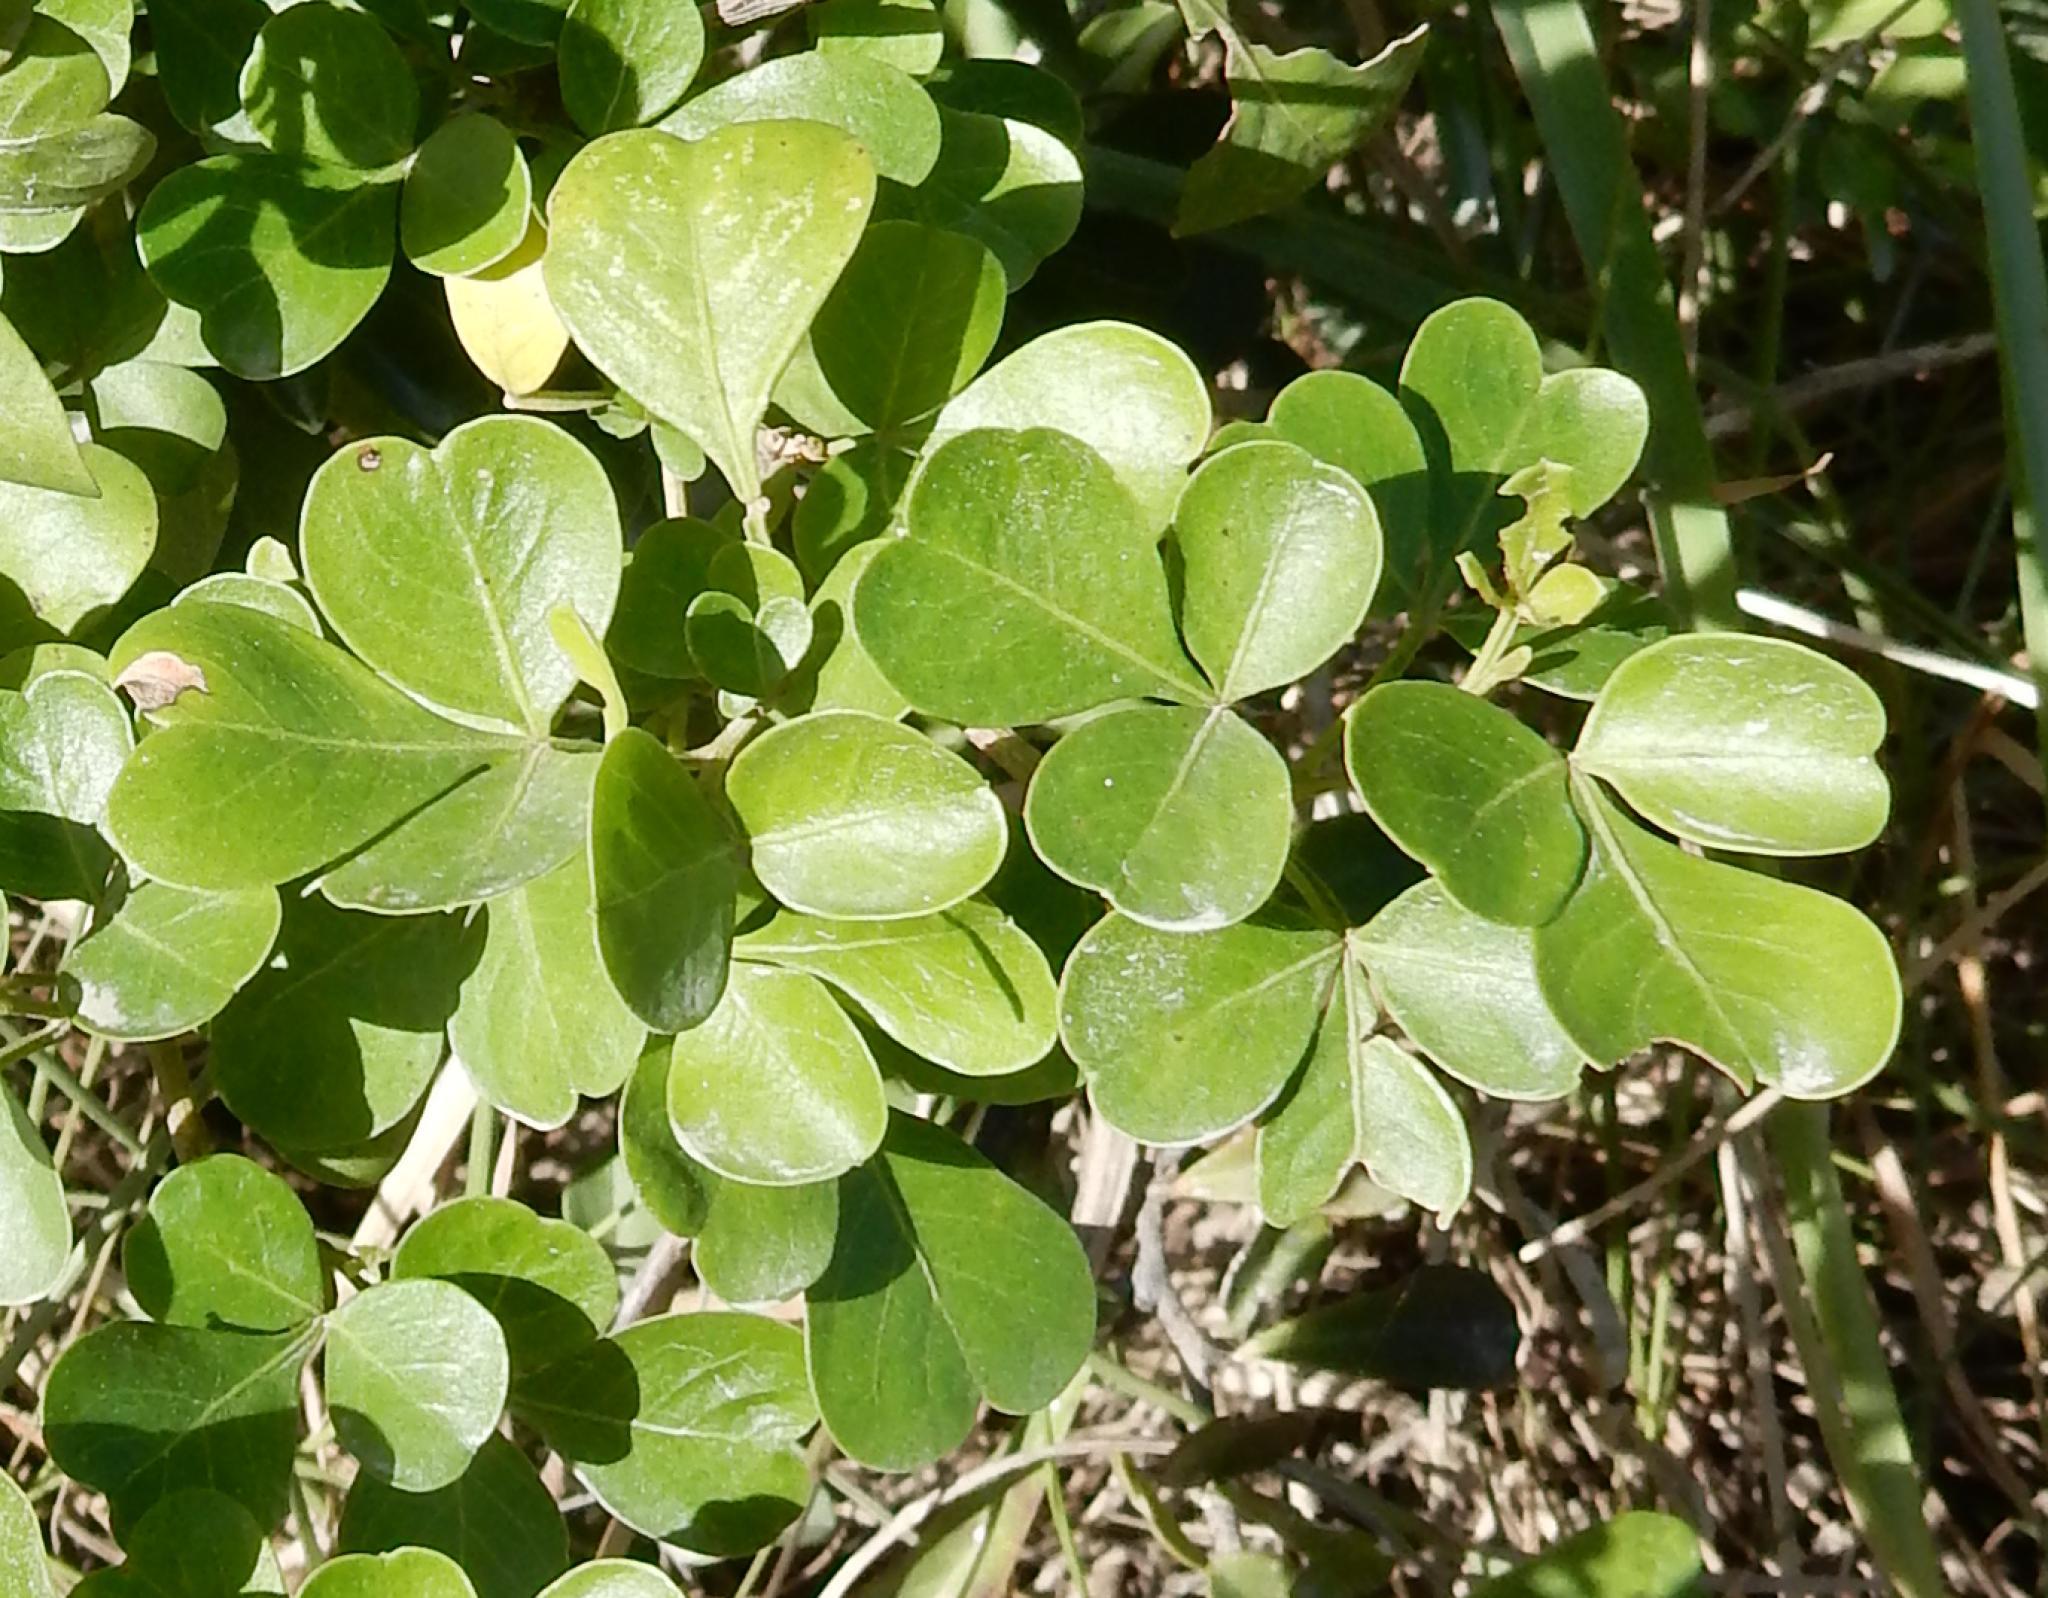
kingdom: Plantae
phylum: Tracheophyta
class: Magnoliopsida
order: Sapindales
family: Anacardiaceae
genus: Searsia
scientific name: Searsia glauca
